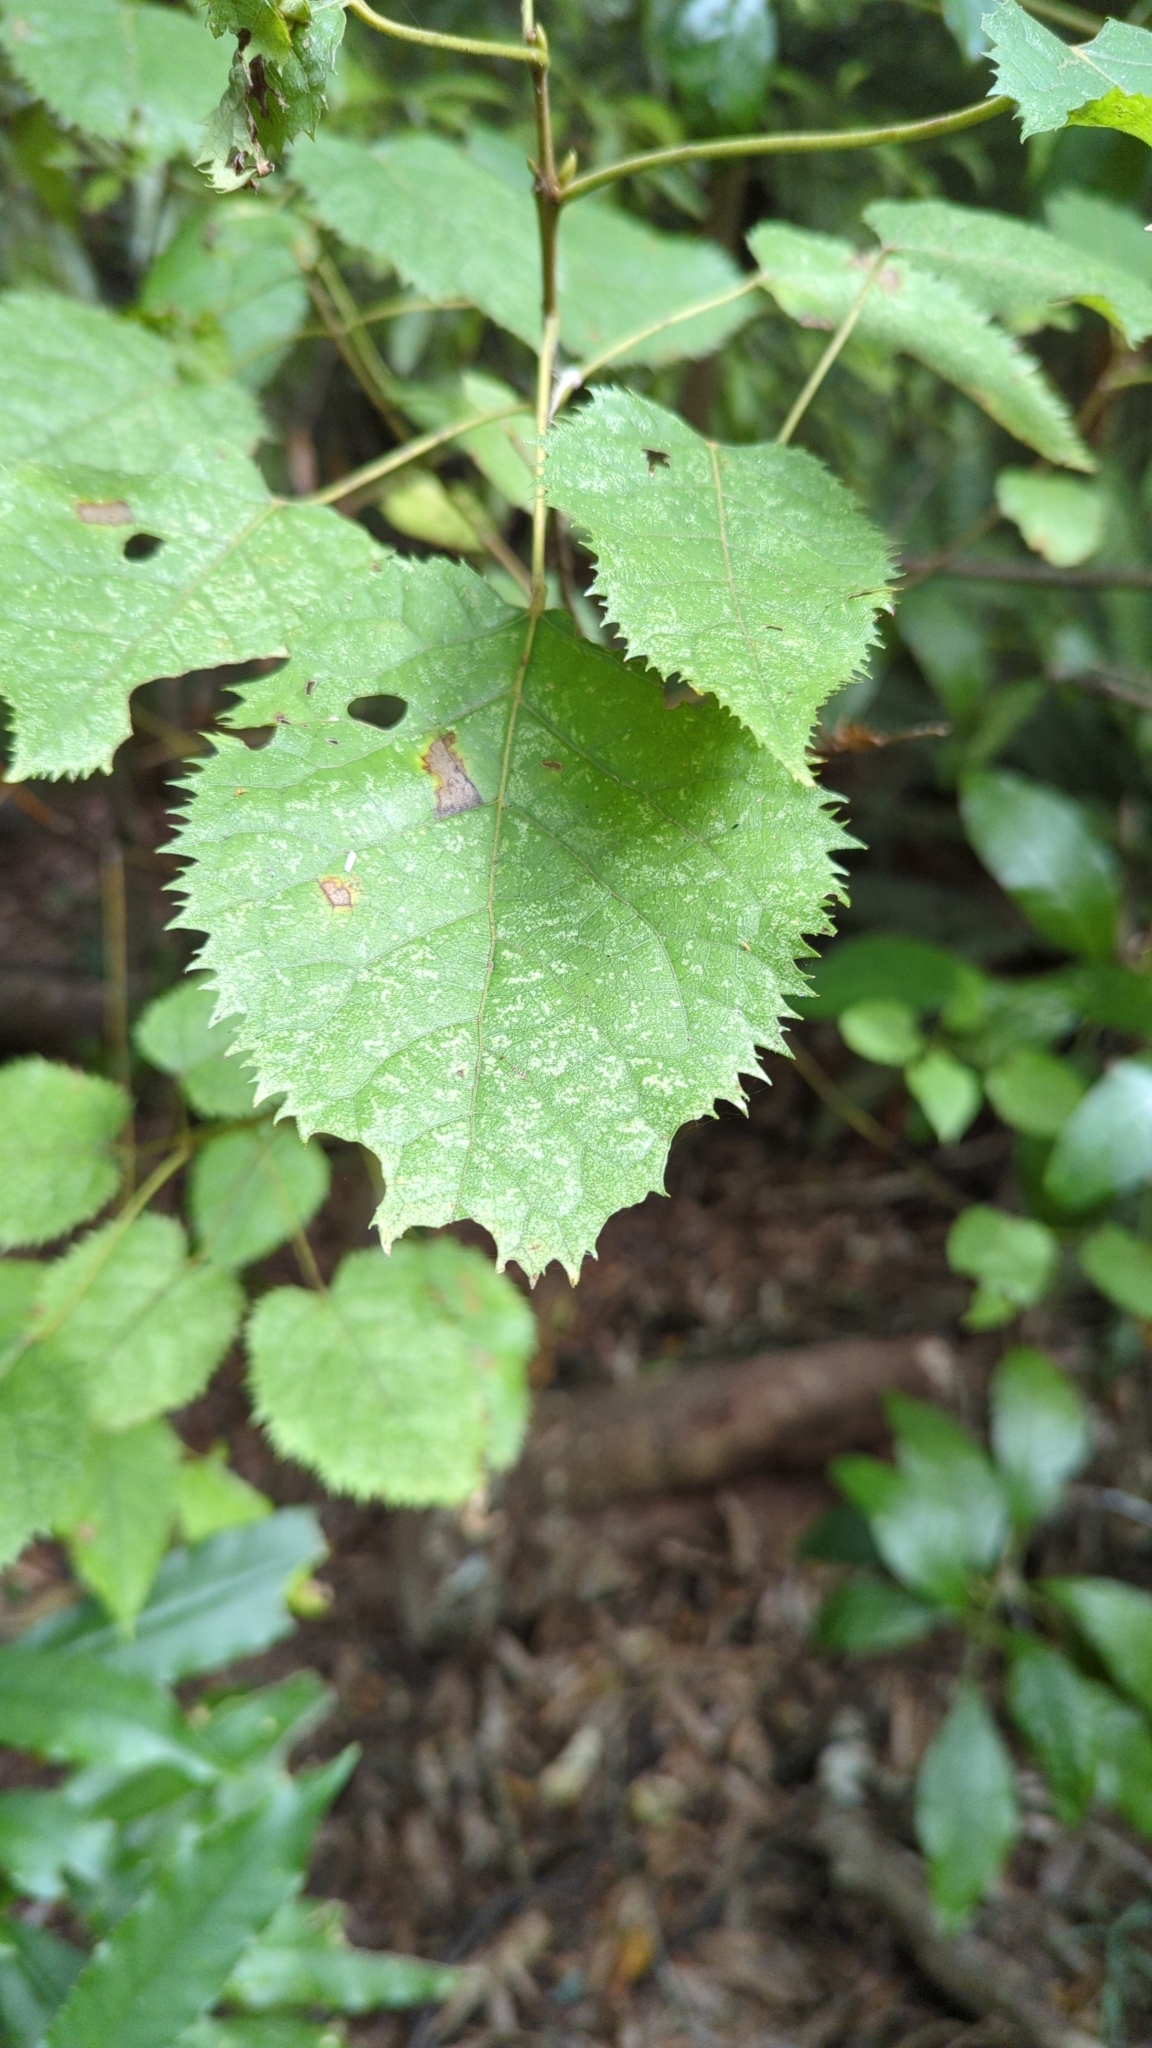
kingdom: Plantae
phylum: Tracheophyta
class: Magnoliopsida
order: Oxalidales
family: Elaeocarpaceae
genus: Aristotelia
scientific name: Aristotelia serrata
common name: New zealand wineberry
